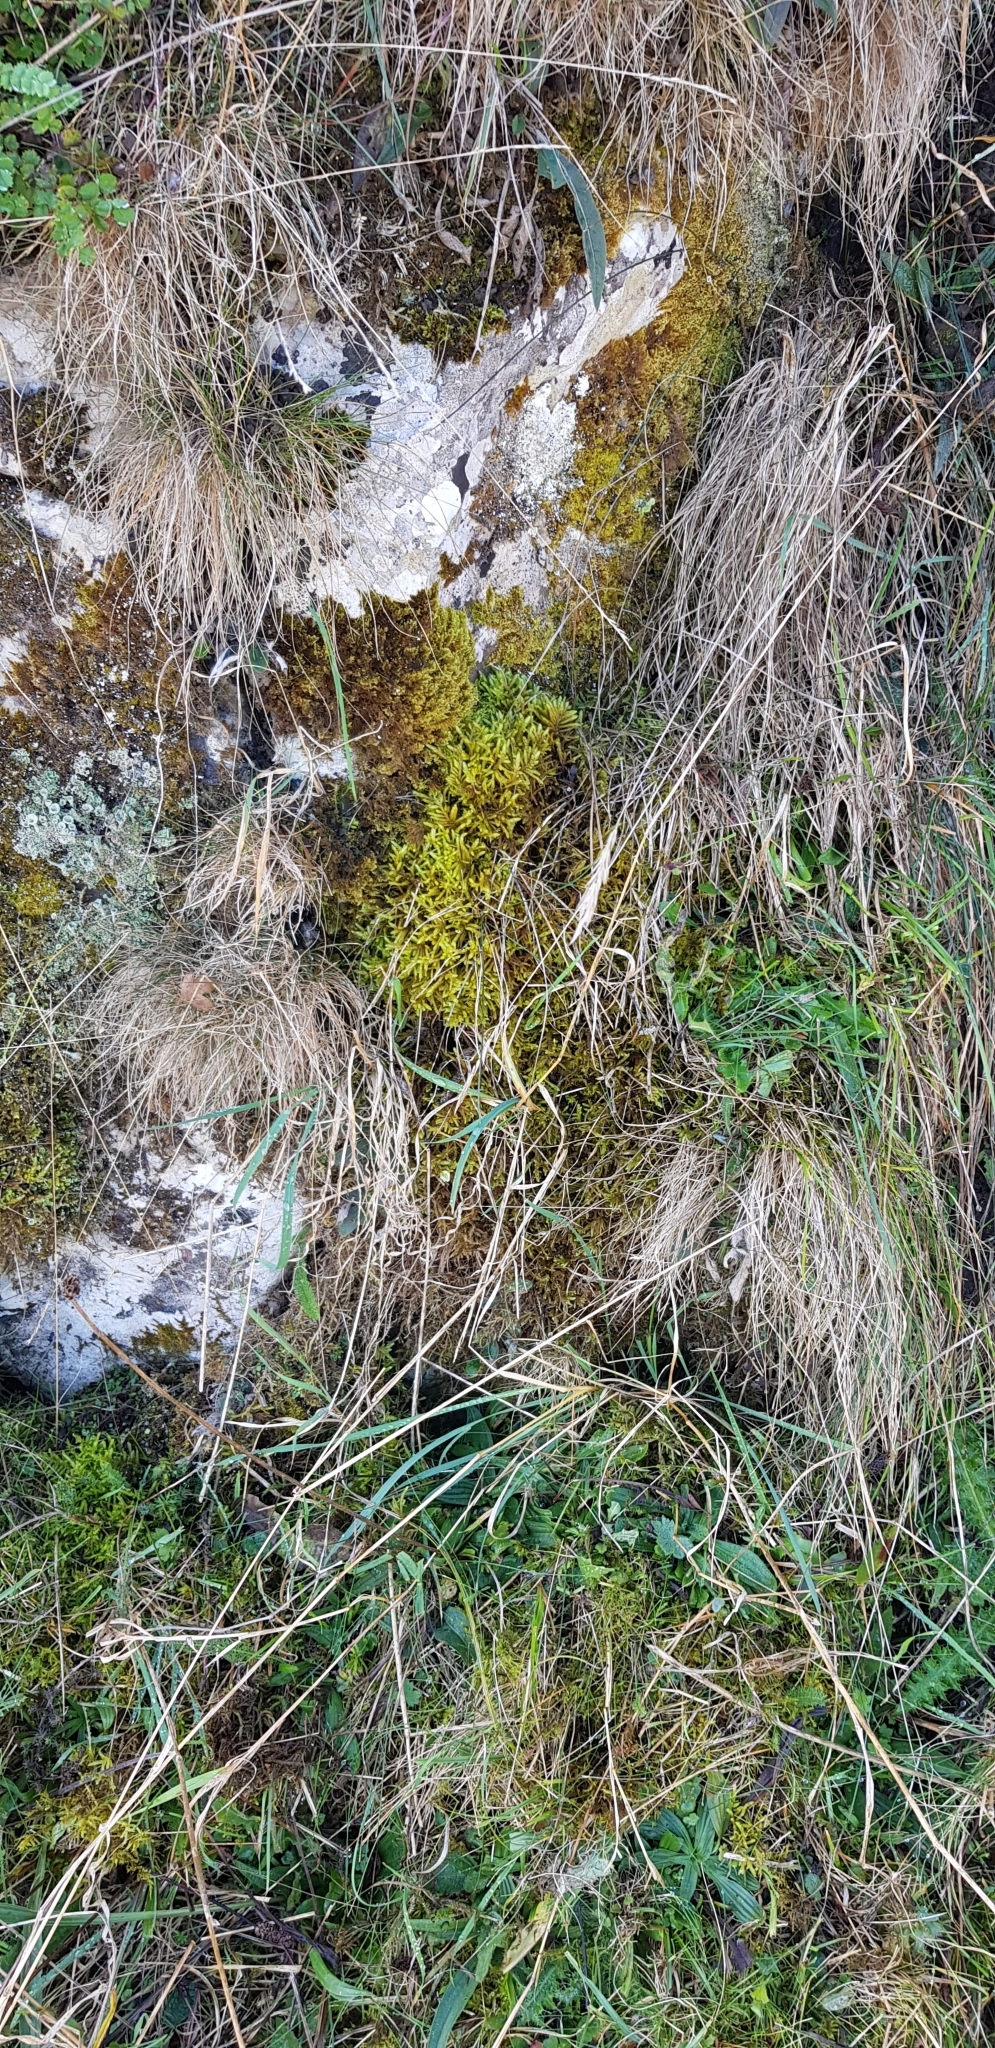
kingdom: Plantae
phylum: Bryophyta
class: Bryopsida
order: Hypnales
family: Brachytheciaceae
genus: Pseudoscleropodium
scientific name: Pseudoscleropodium purum
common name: Neat feather-moss
